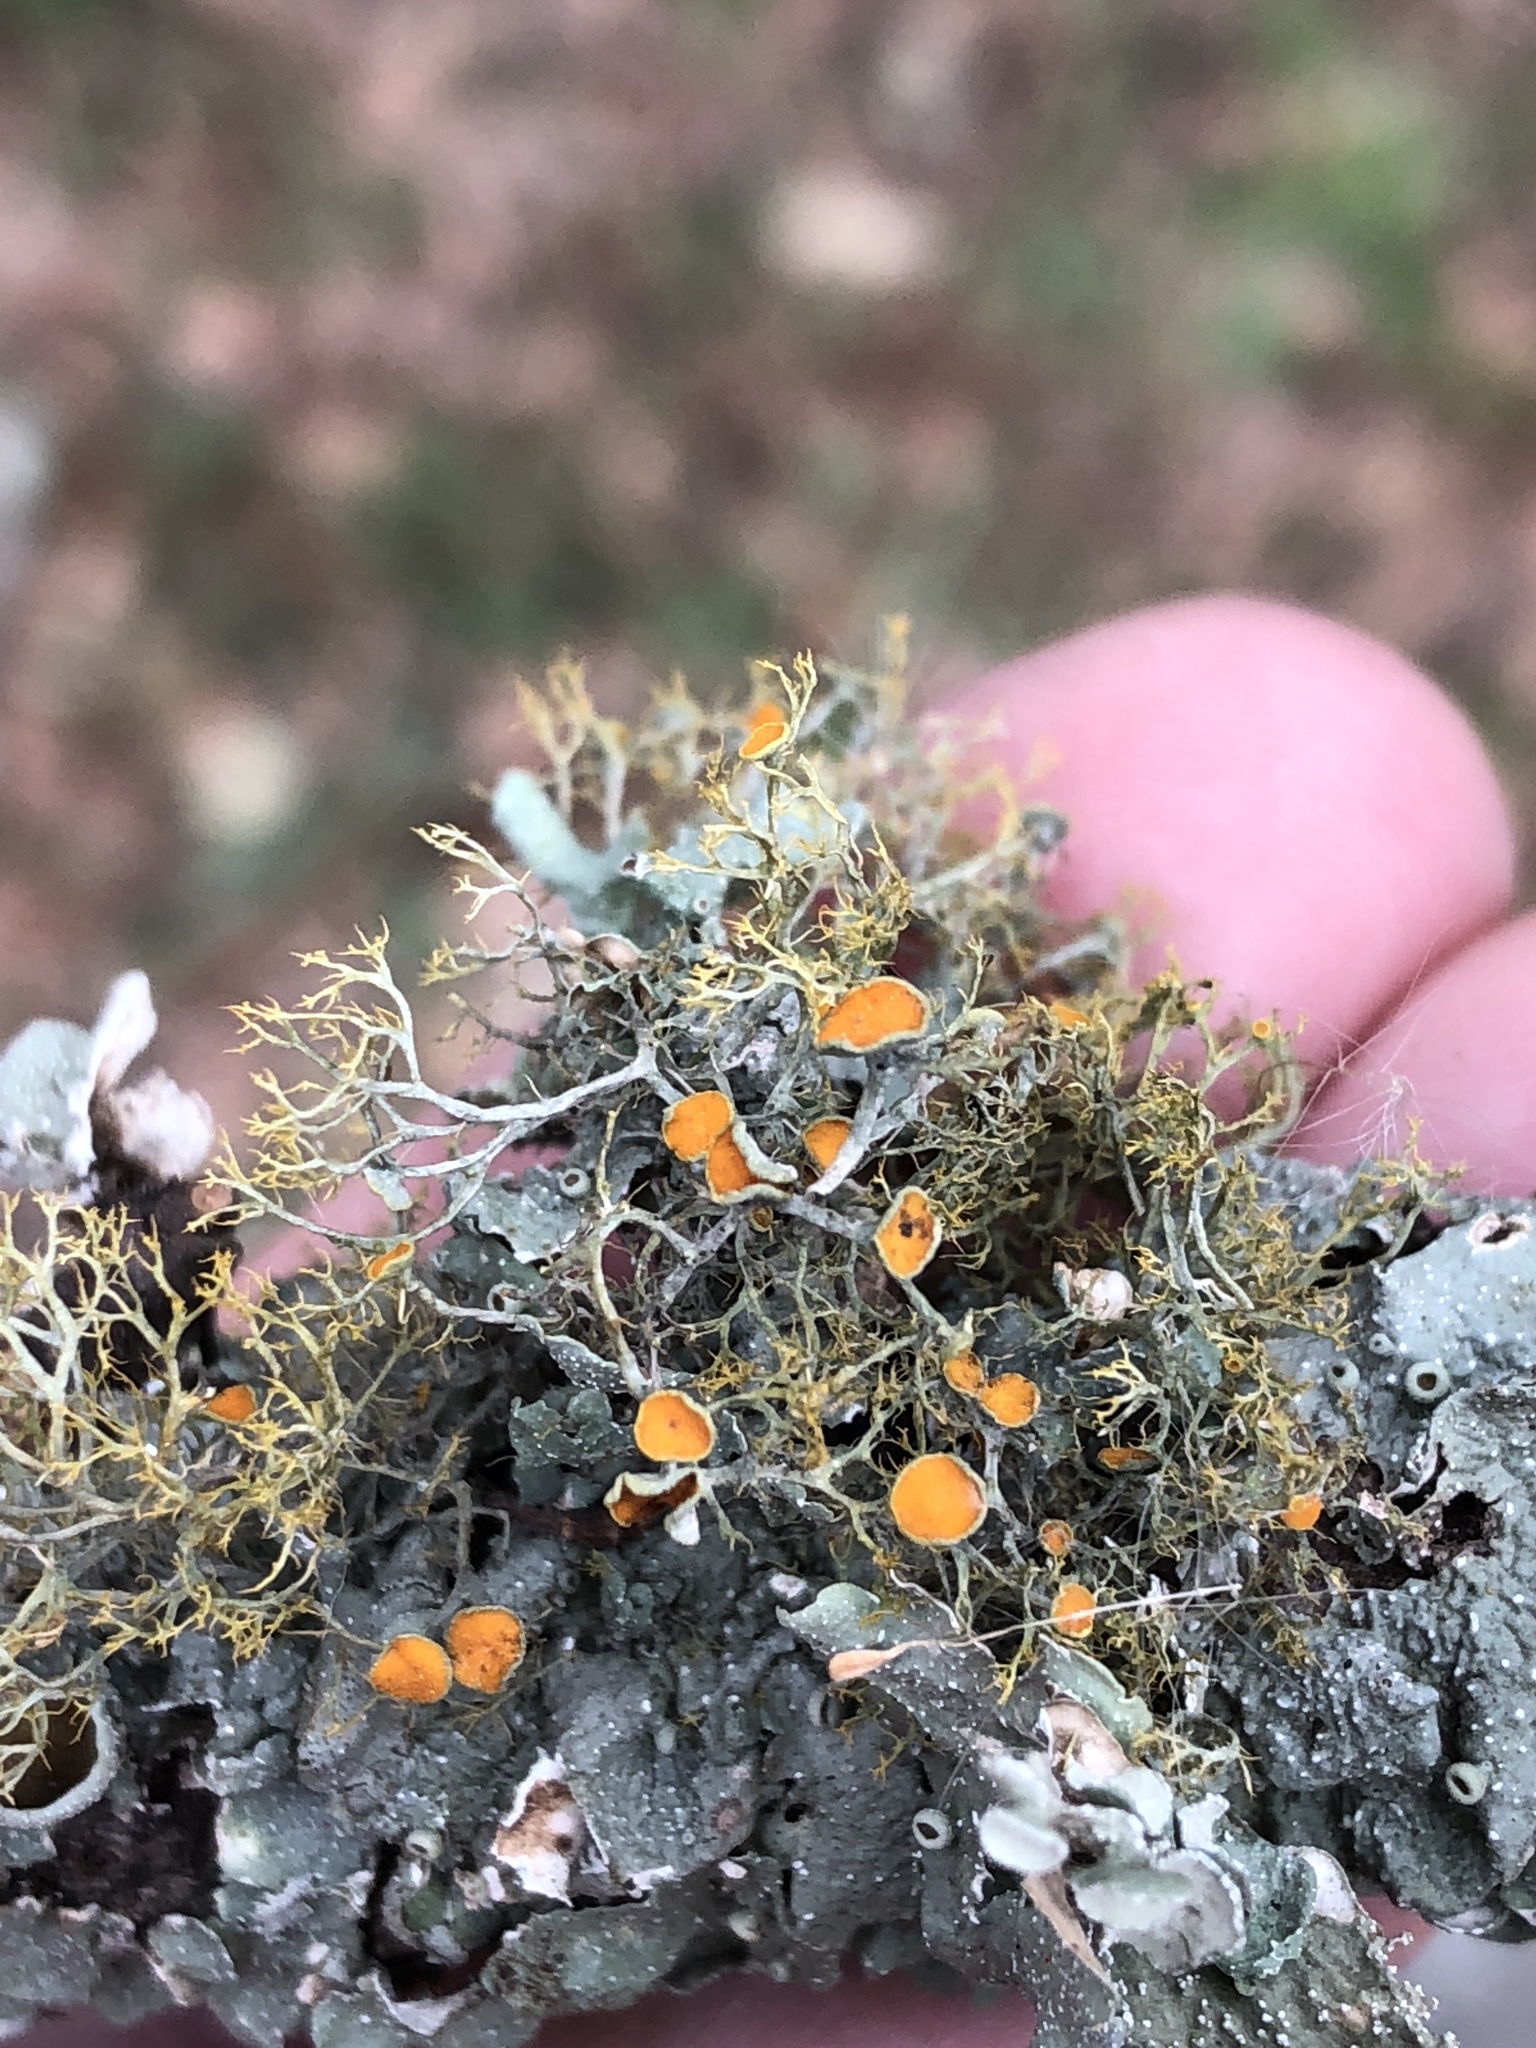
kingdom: Fungi
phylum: Ascomycota
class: Lecanoromycetes
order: Teloschistales
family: Teloschistaceae
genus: Teloschistes
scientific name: Teloschistes exilis
